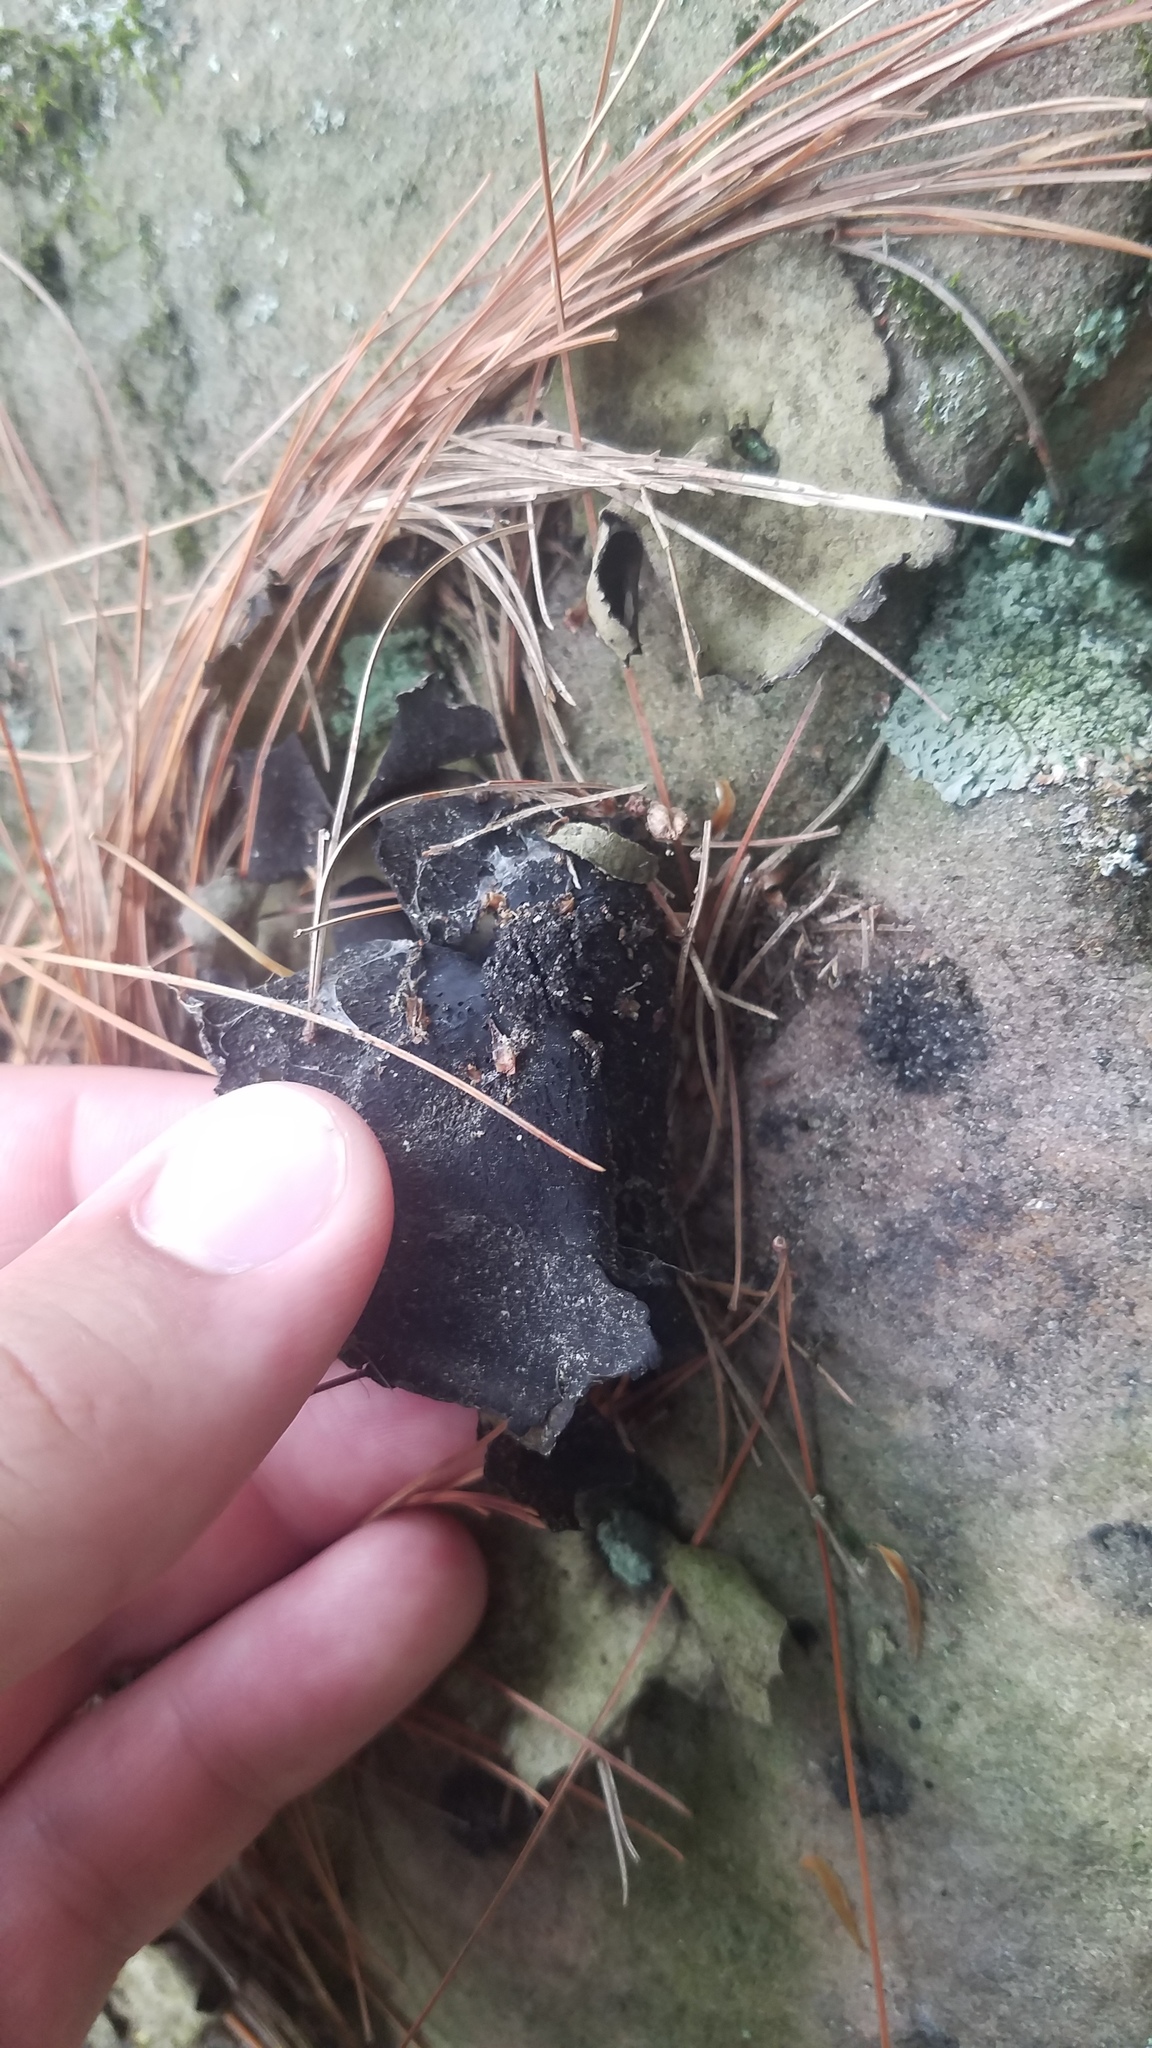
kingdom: Fungi
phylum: Ascomycota
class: Lecanoromycetes
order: Umbilicariales
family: Umbilicariaceae
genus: Umbilicaria
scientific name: Umbilicaria mammulata
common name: Smooth rock tripe
